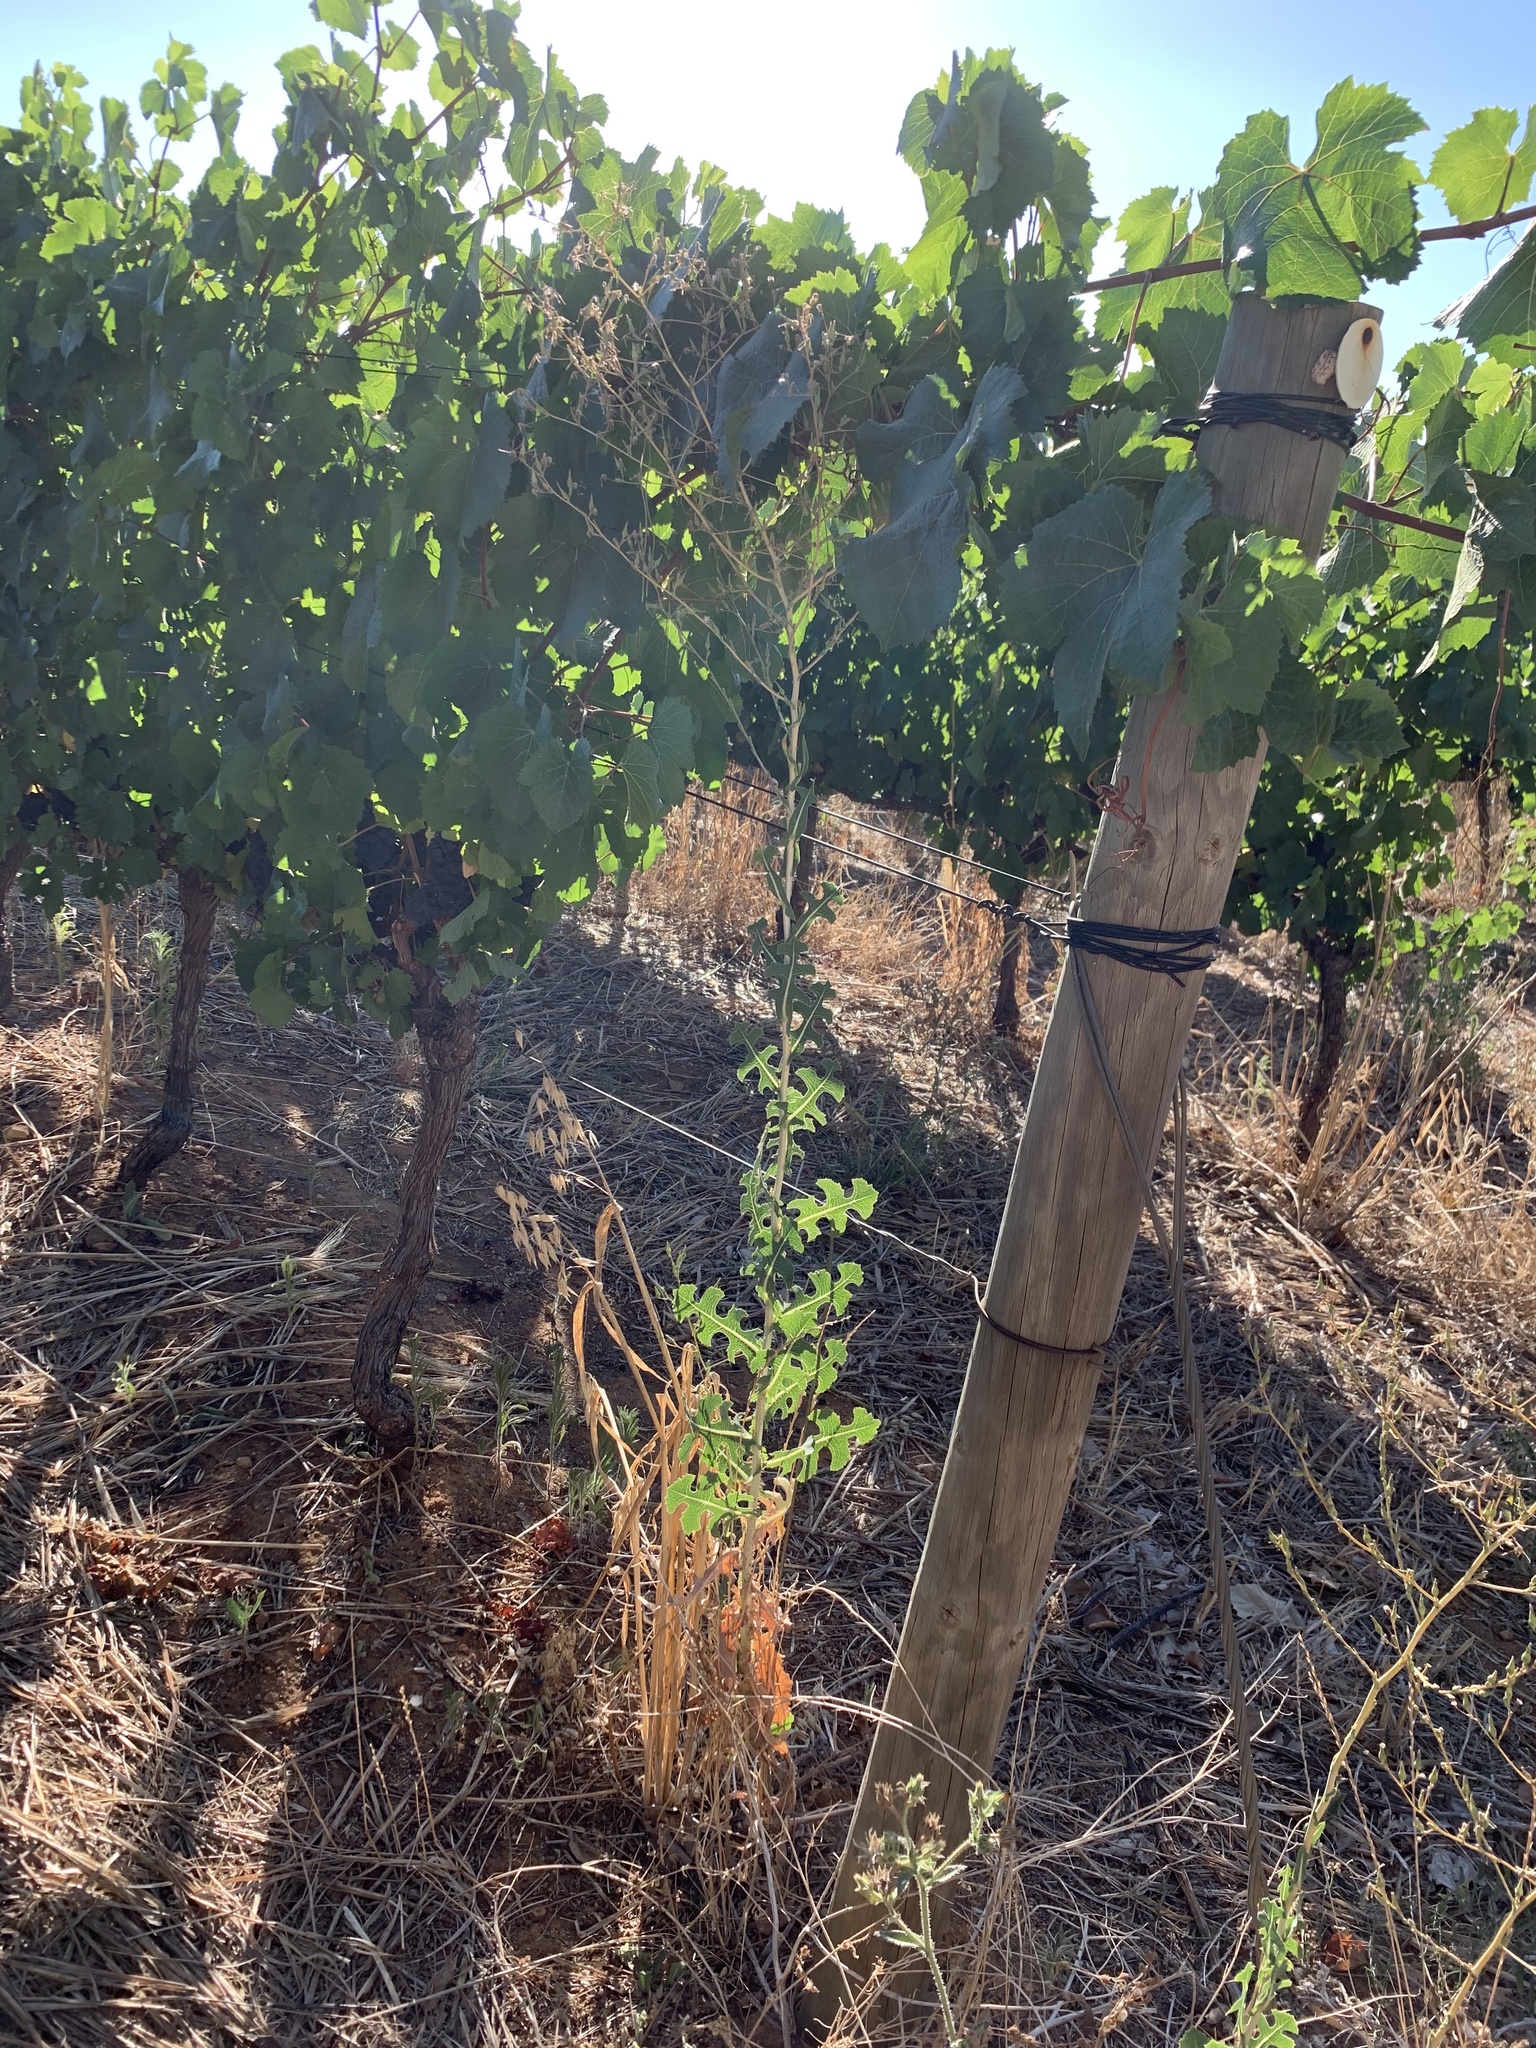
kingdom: Plantae
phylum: Tracheophyta
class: Magnoliopsida
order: Asterales
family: Asteraceae
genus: Lactuca
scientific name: Lactuca serriola
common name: Prickly lettuce
